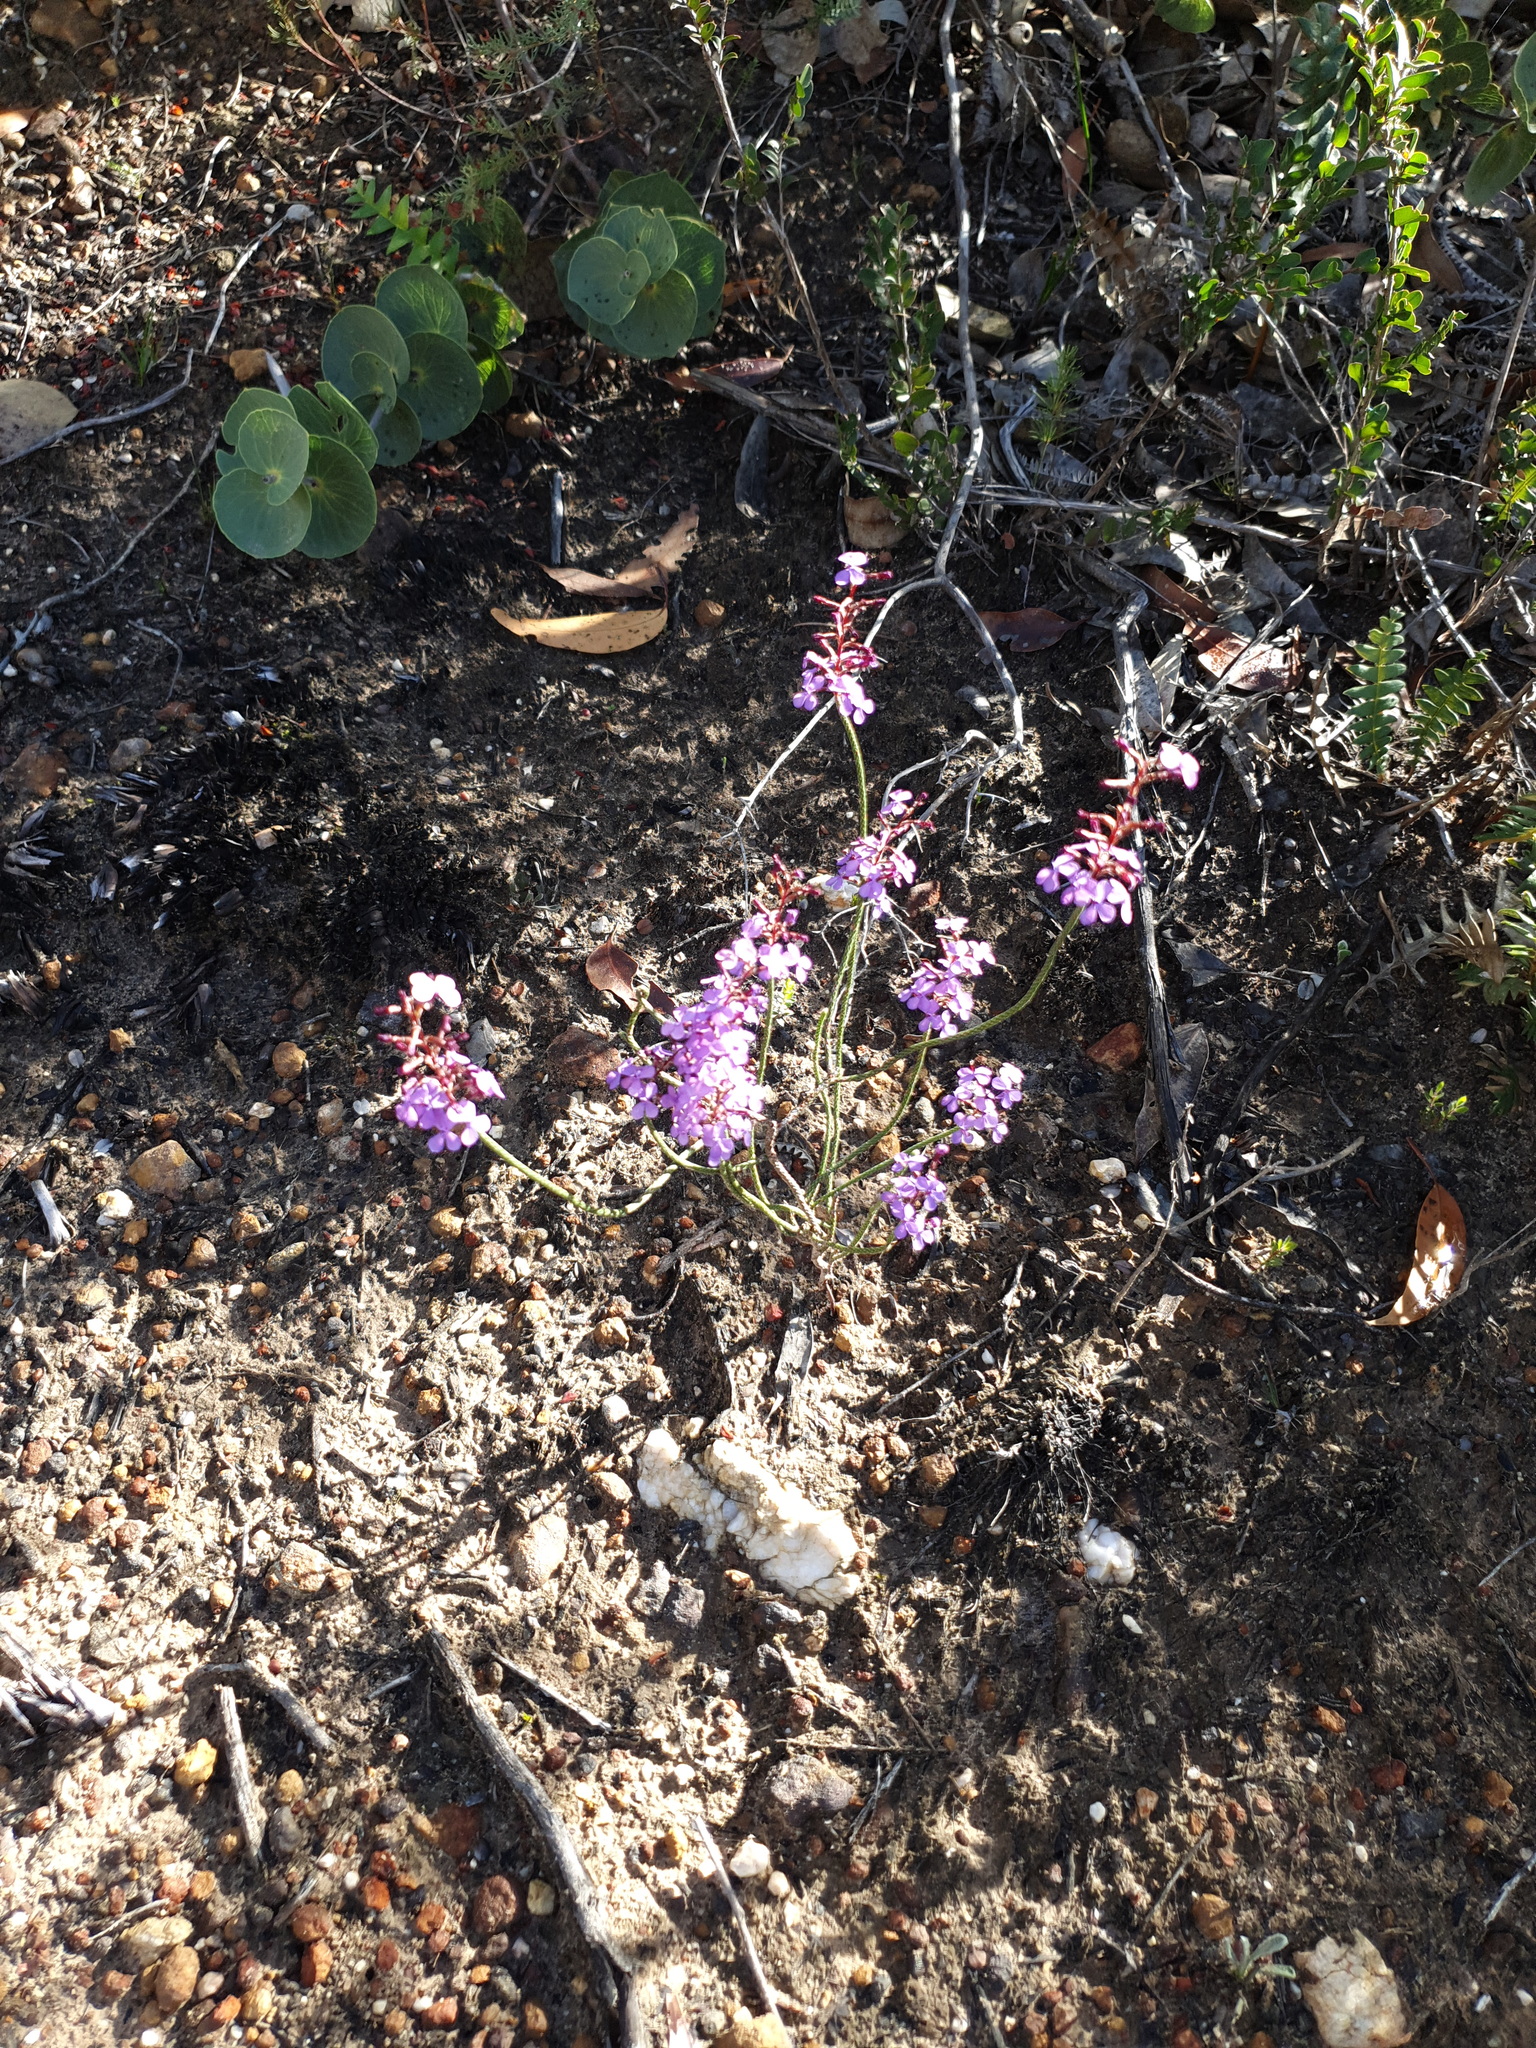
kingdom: Plantae
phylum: Tracheophyta
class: Magnoliopsida
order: Asterales
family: Stylidiaceae
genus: Stylidium
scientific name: Stylidium preissii
